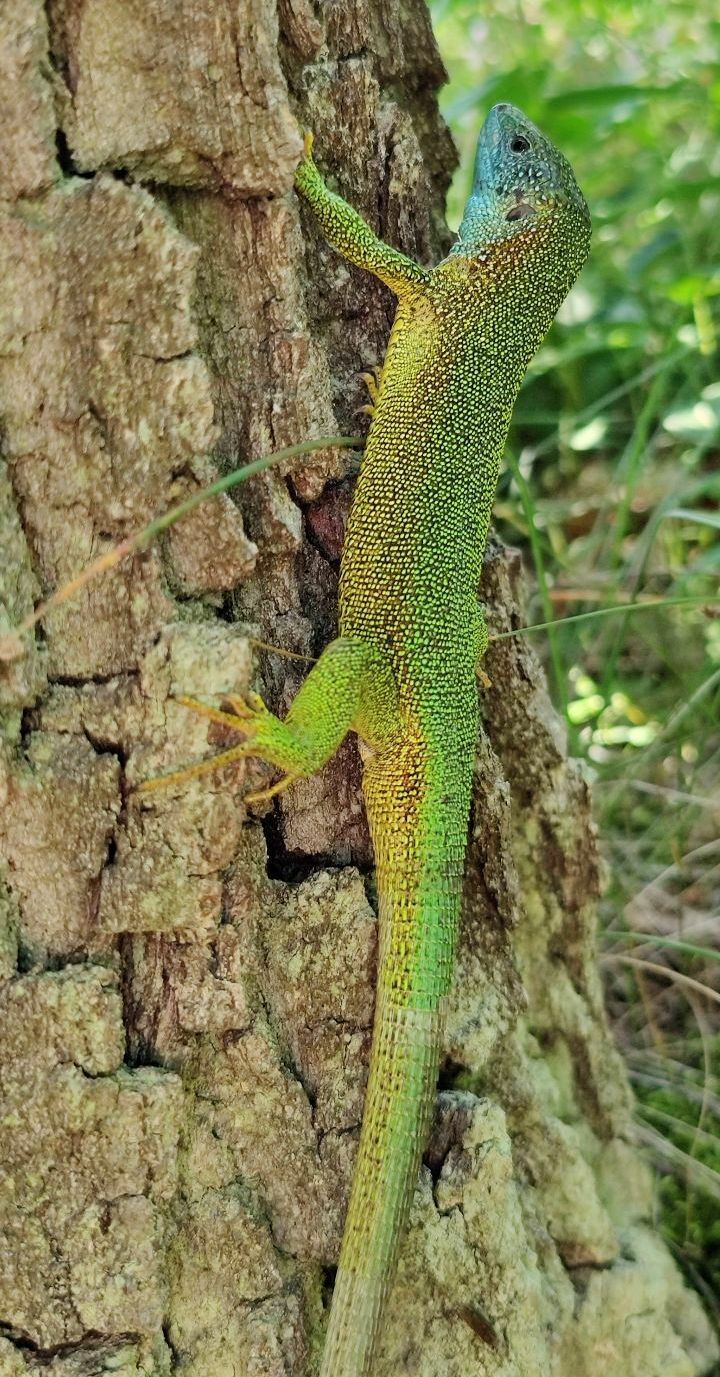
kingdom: Animalia
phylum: Chordata
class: Squamata
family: Lacertidae
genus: Lacerta
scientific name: Lacerta viridis
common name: European green lizard
